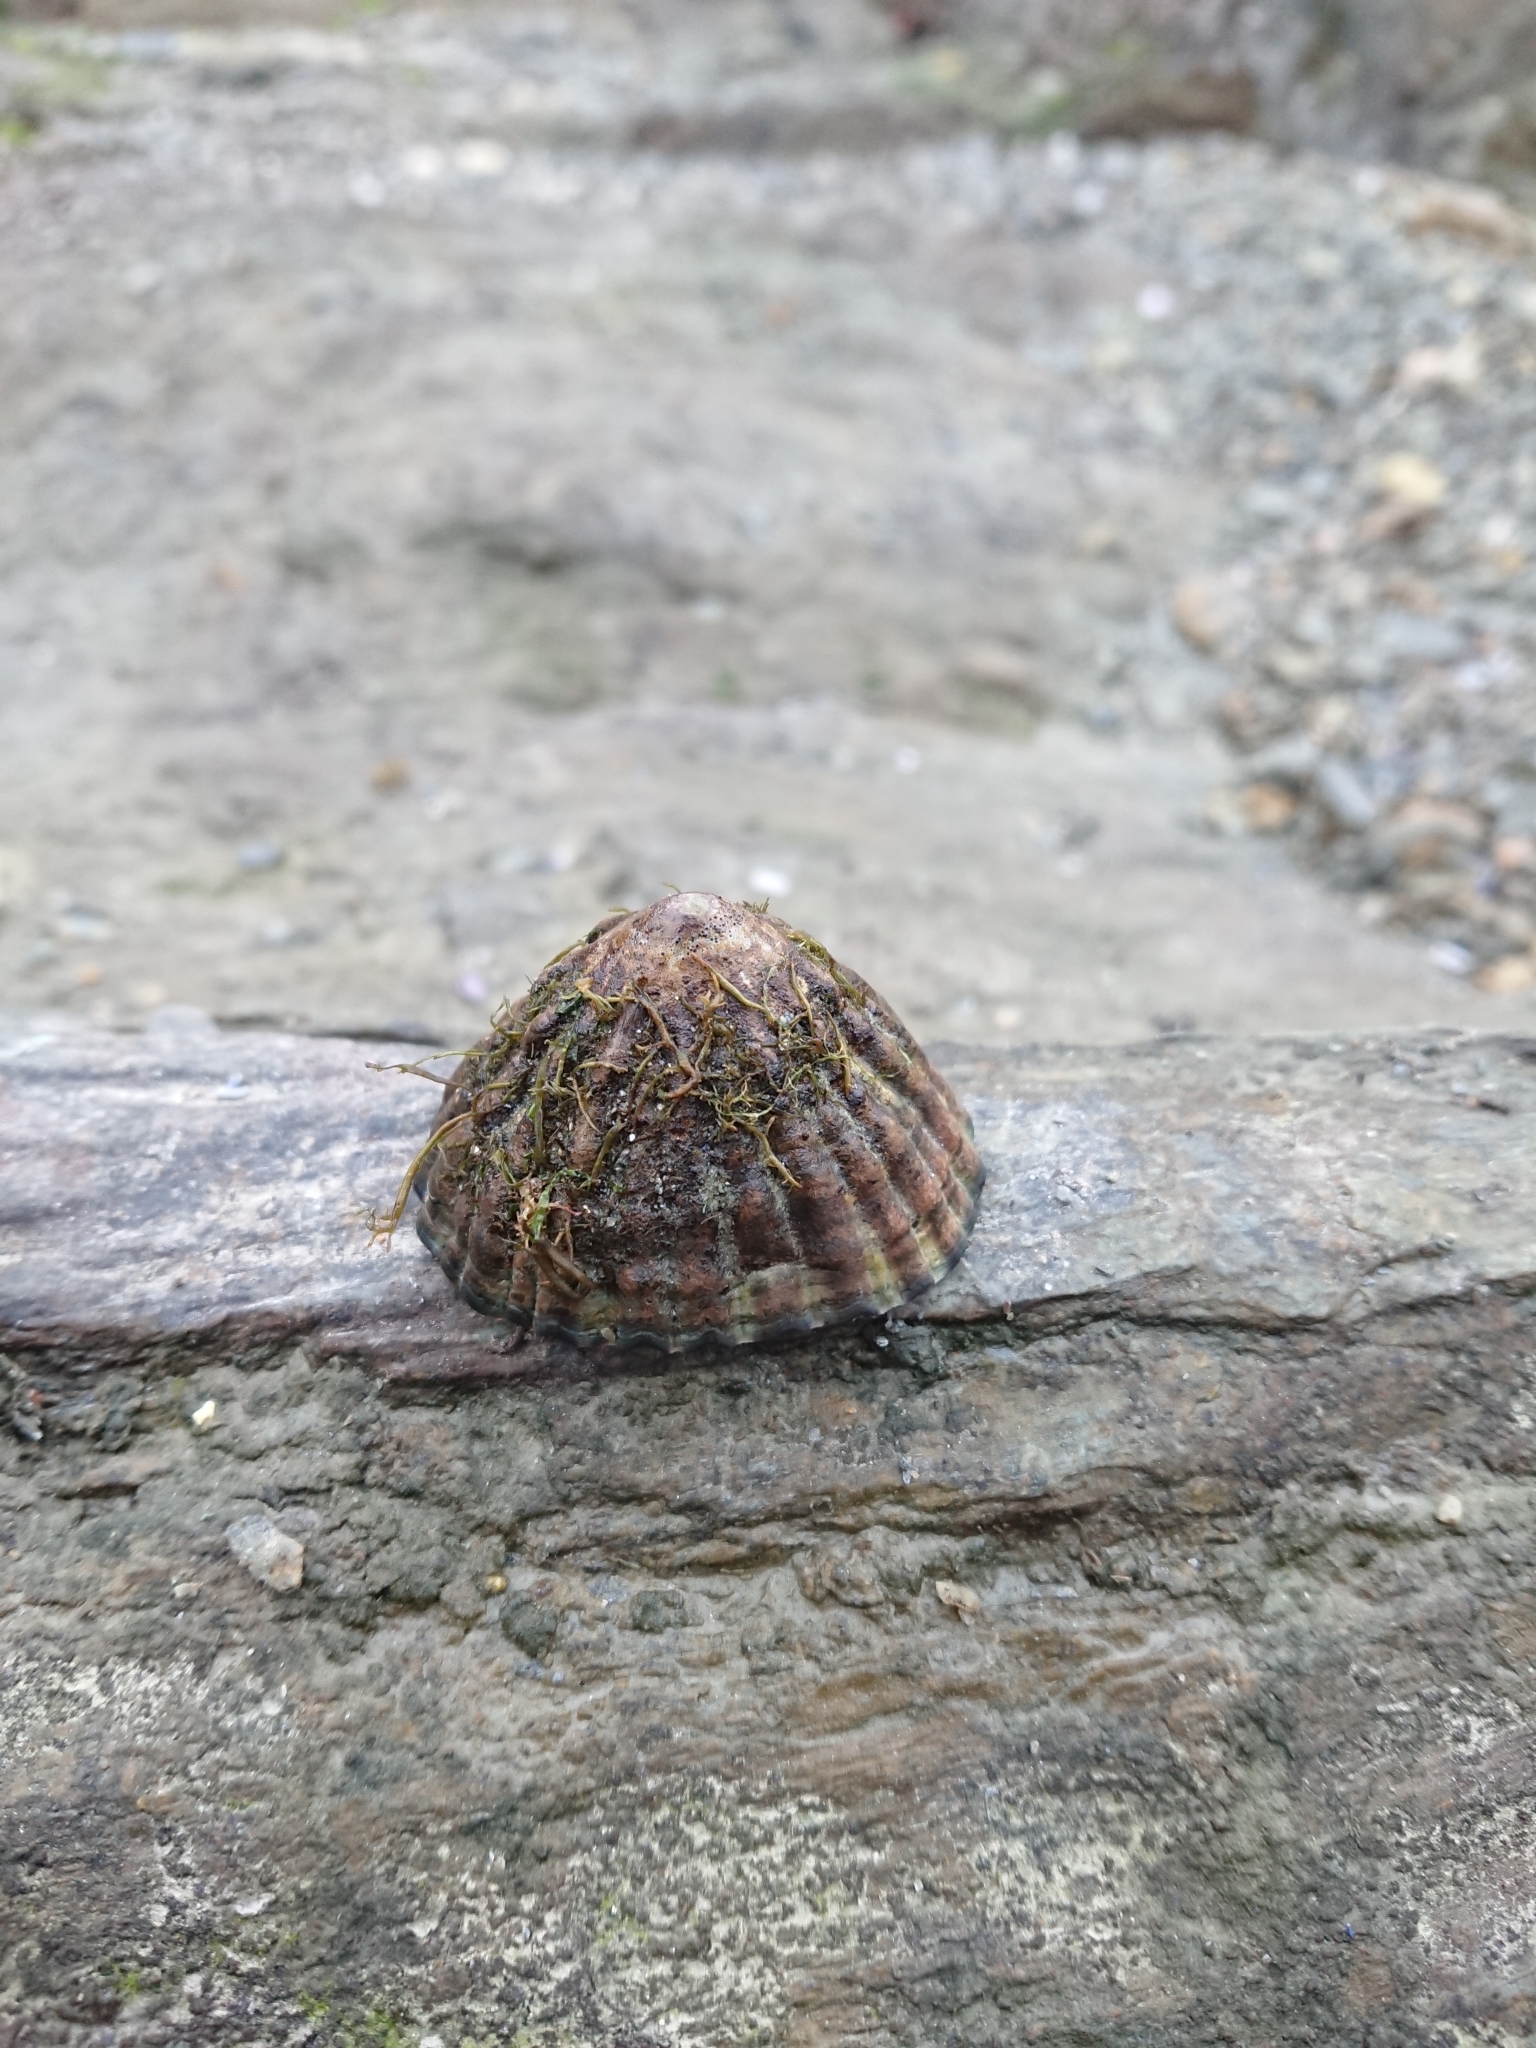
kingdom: Animalia
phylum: Mollusca
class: Gastropoda
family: Nacellidae
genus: Nacella
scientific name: Nacella magellanica
